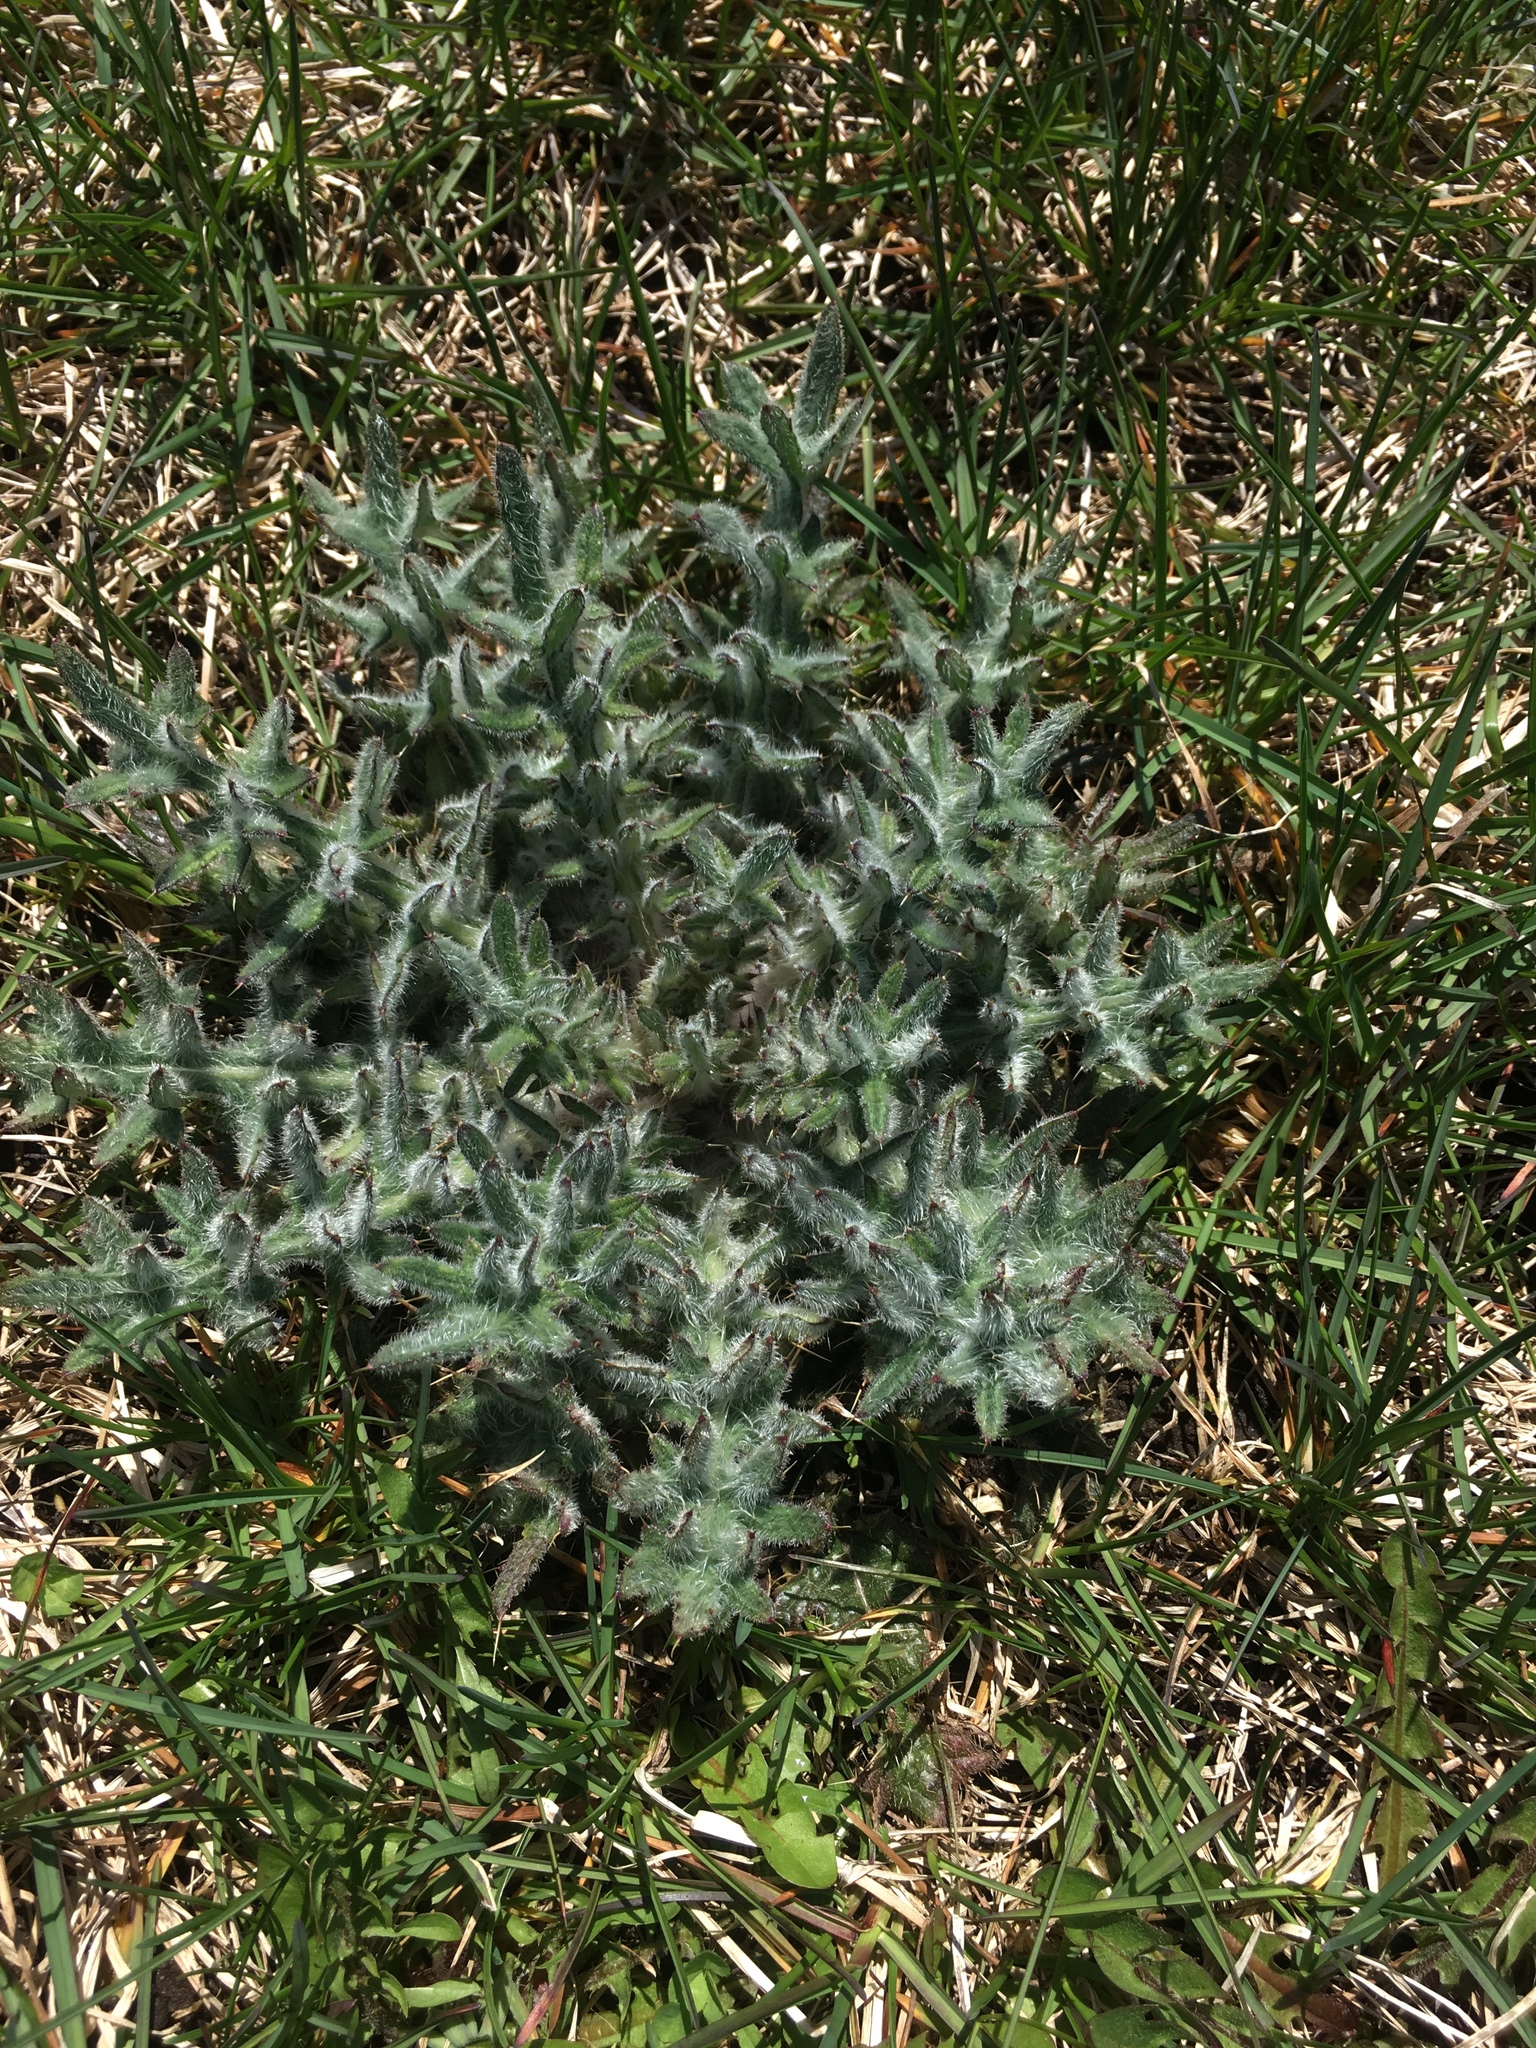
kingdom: Plantae
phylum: Tracheophyta
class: Magnoliopsida
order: Asterales
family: Asteraceae
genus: Cirsium
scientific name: Cirsium vulgare
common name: Bull thistle
